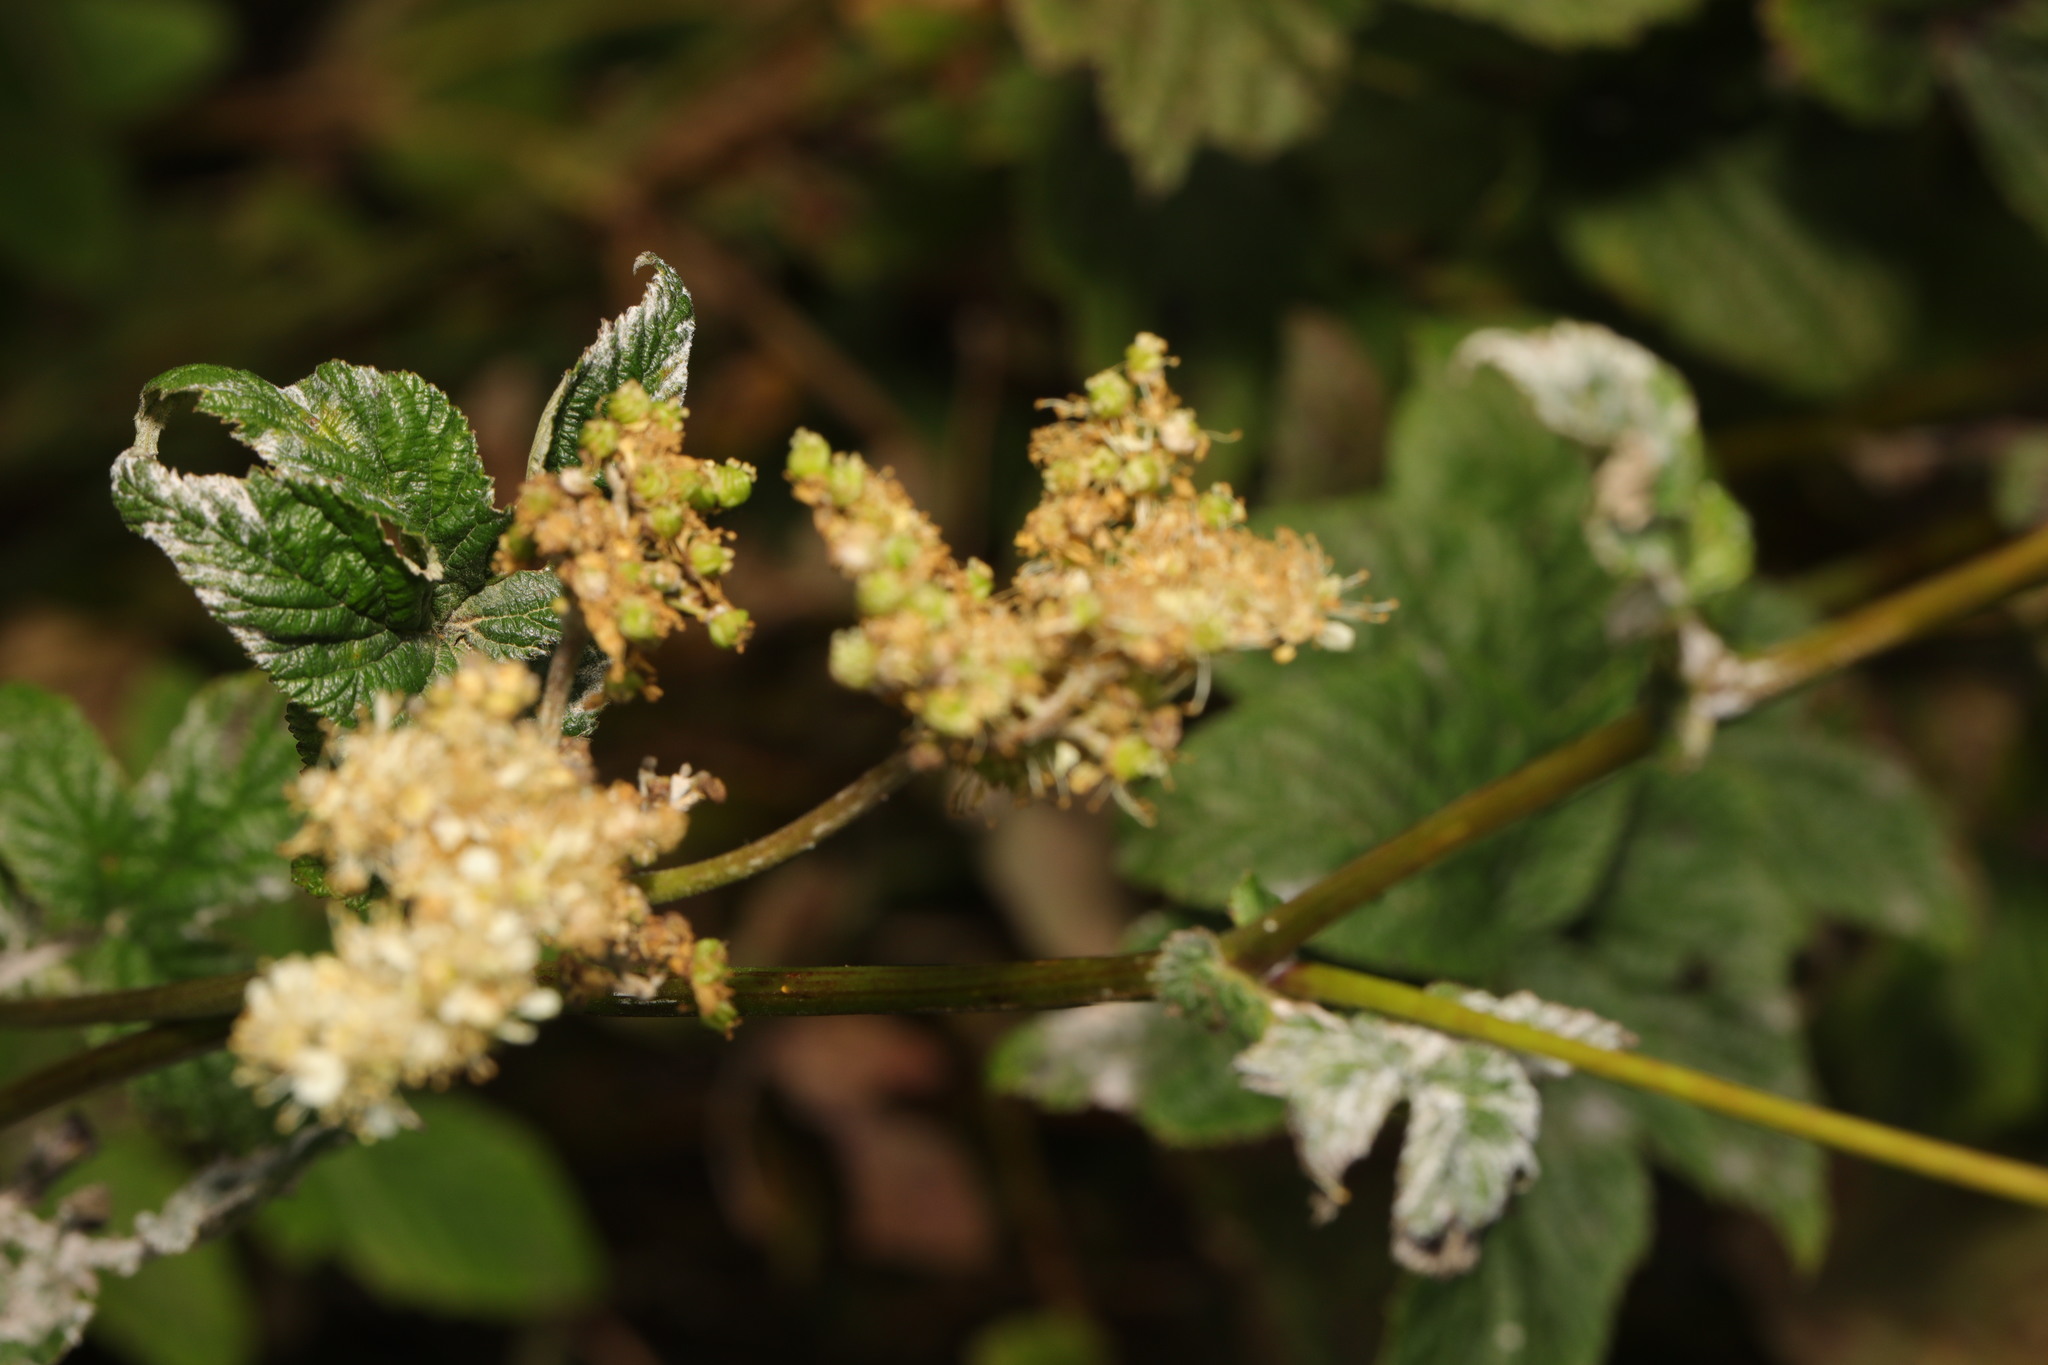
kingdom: Fungi
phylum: Ascomycota
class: Leotiomycetes
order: Helotiales
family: Erysiphaceae
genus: Podosphaera
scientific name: Podosphaera filipendulae
